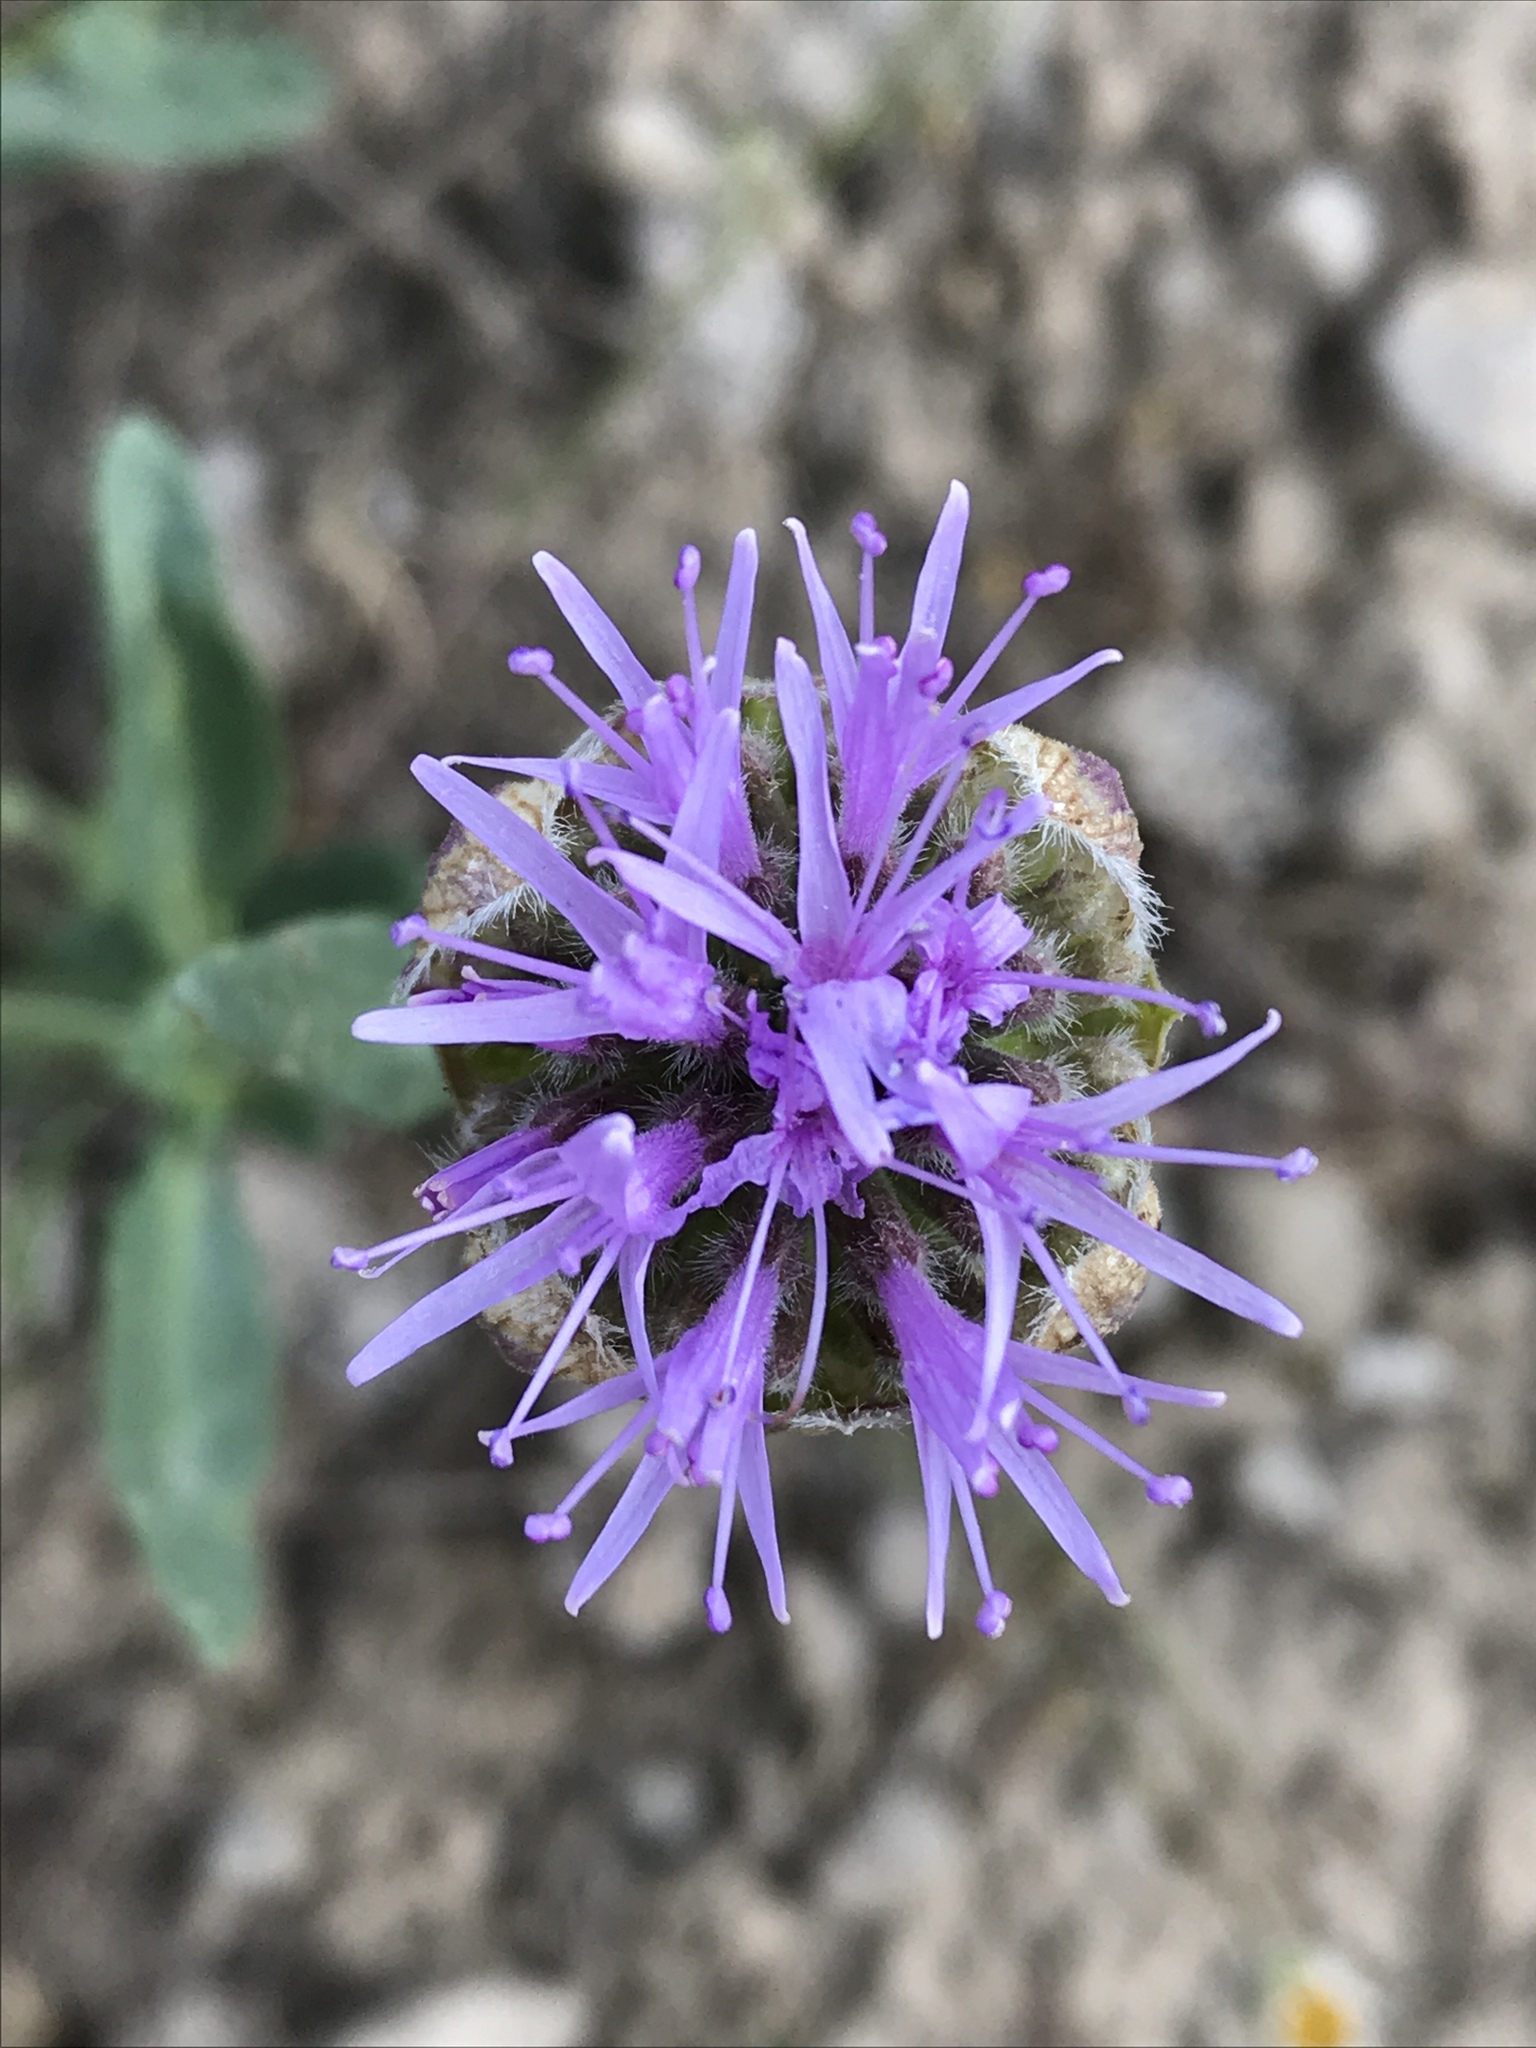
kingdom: Plantae
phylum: Tracheophyta
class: Magnoliopsida
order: Lamiales
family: Lamiaceae
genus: Monardella
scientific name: Monardella odoratissima
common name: Pacific monardella
